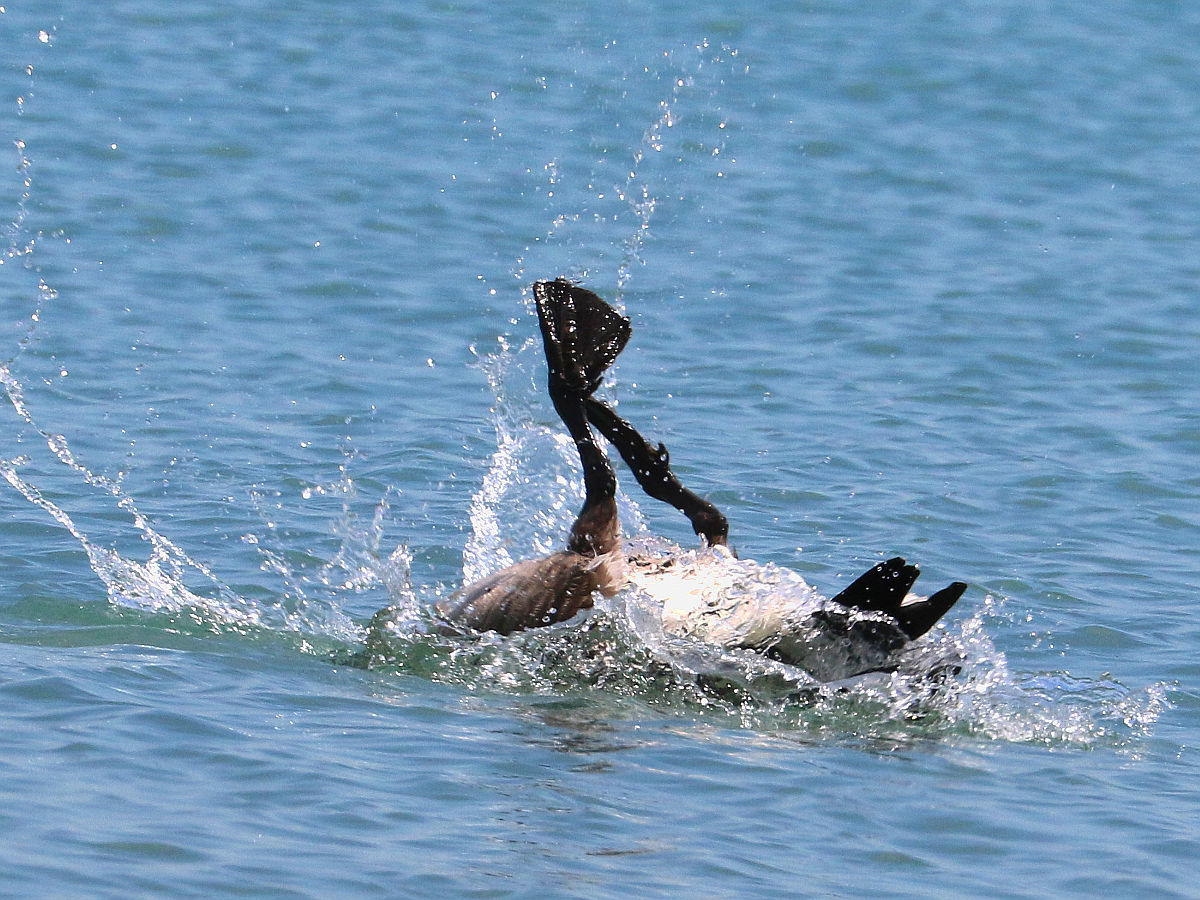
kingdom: Animalia
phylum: Chordata
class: Aves
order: Anseriformes
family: Anatidae
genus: Branta
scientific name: Branta canadensis
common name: Canada goose
